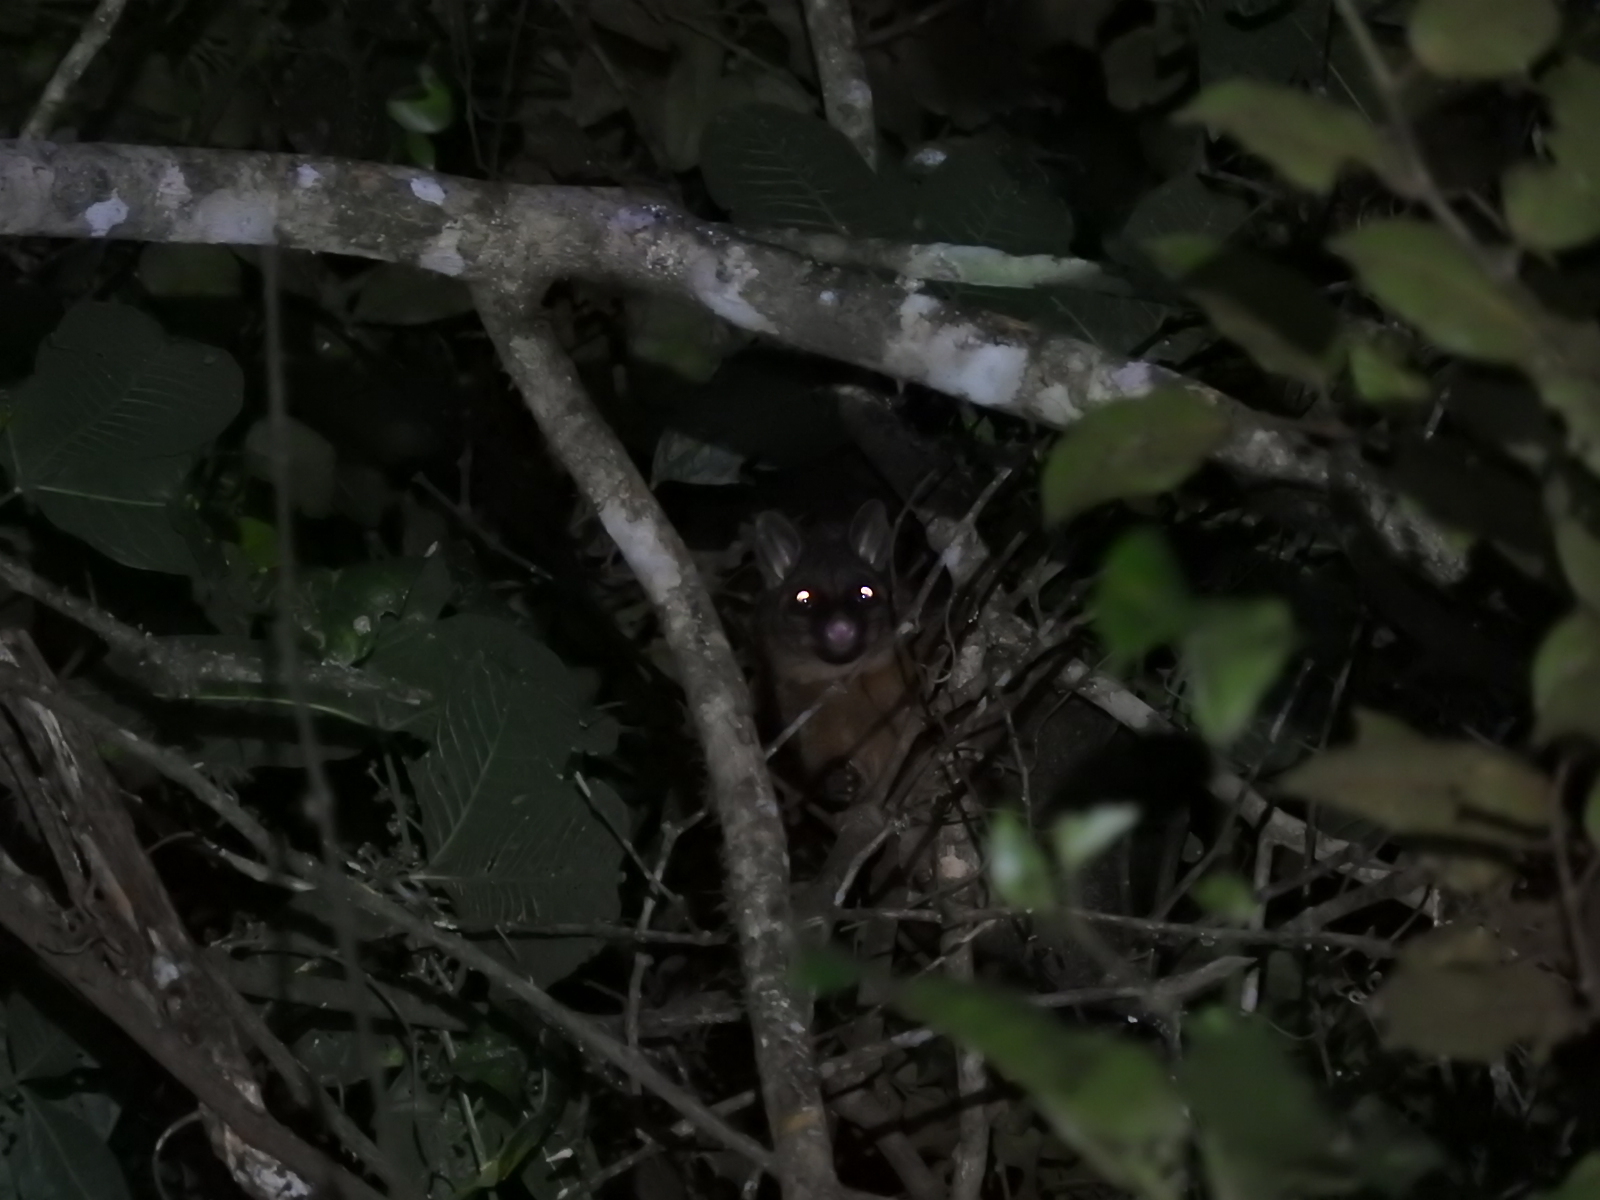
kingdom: Animalia
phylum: Chordata
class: Mammalia
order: Diprotodontia
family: Phalangeridae
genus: Trichosurus
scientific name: Trichosurus vulpecula
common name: Common brushtail
